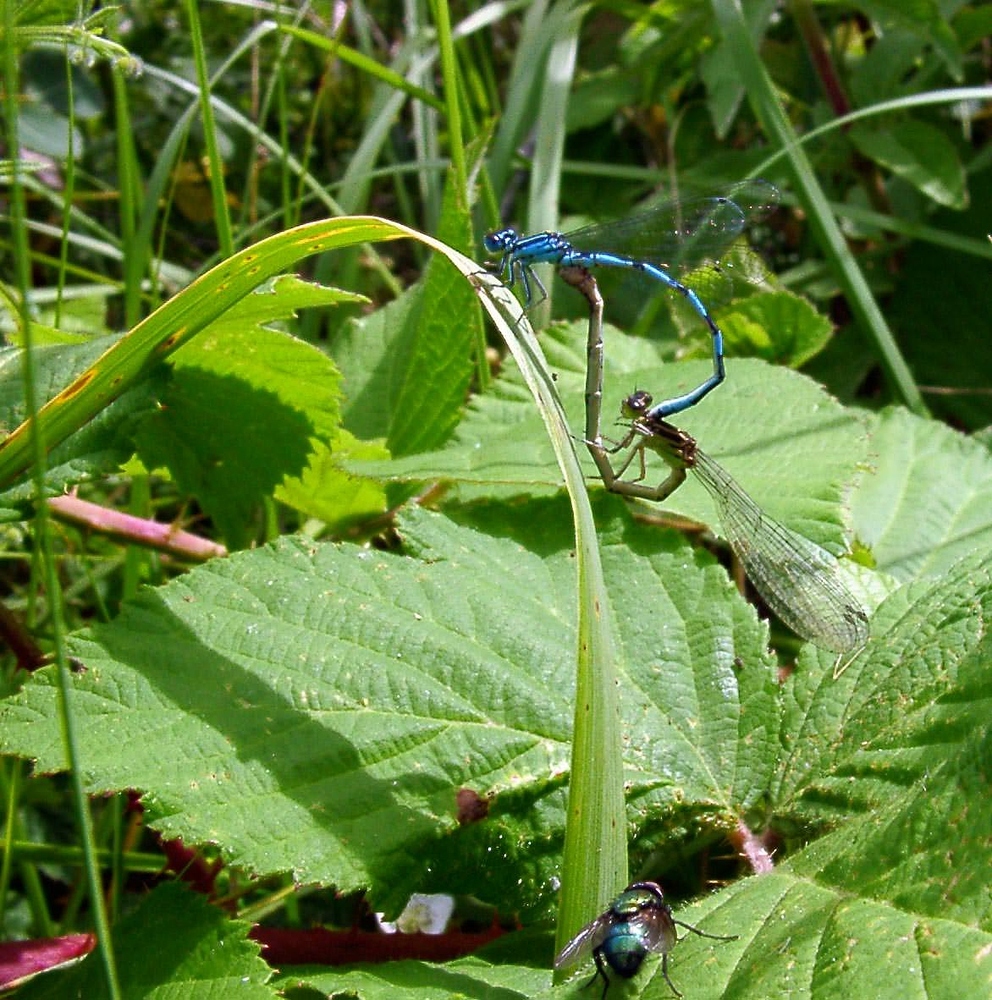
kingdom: Animalia
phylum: Arthropoda
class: Insecta
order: Odonata
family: Coenagrionidae
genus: Coenagrion
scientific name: Coenagrion mercuriale
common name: Southern damselfly
